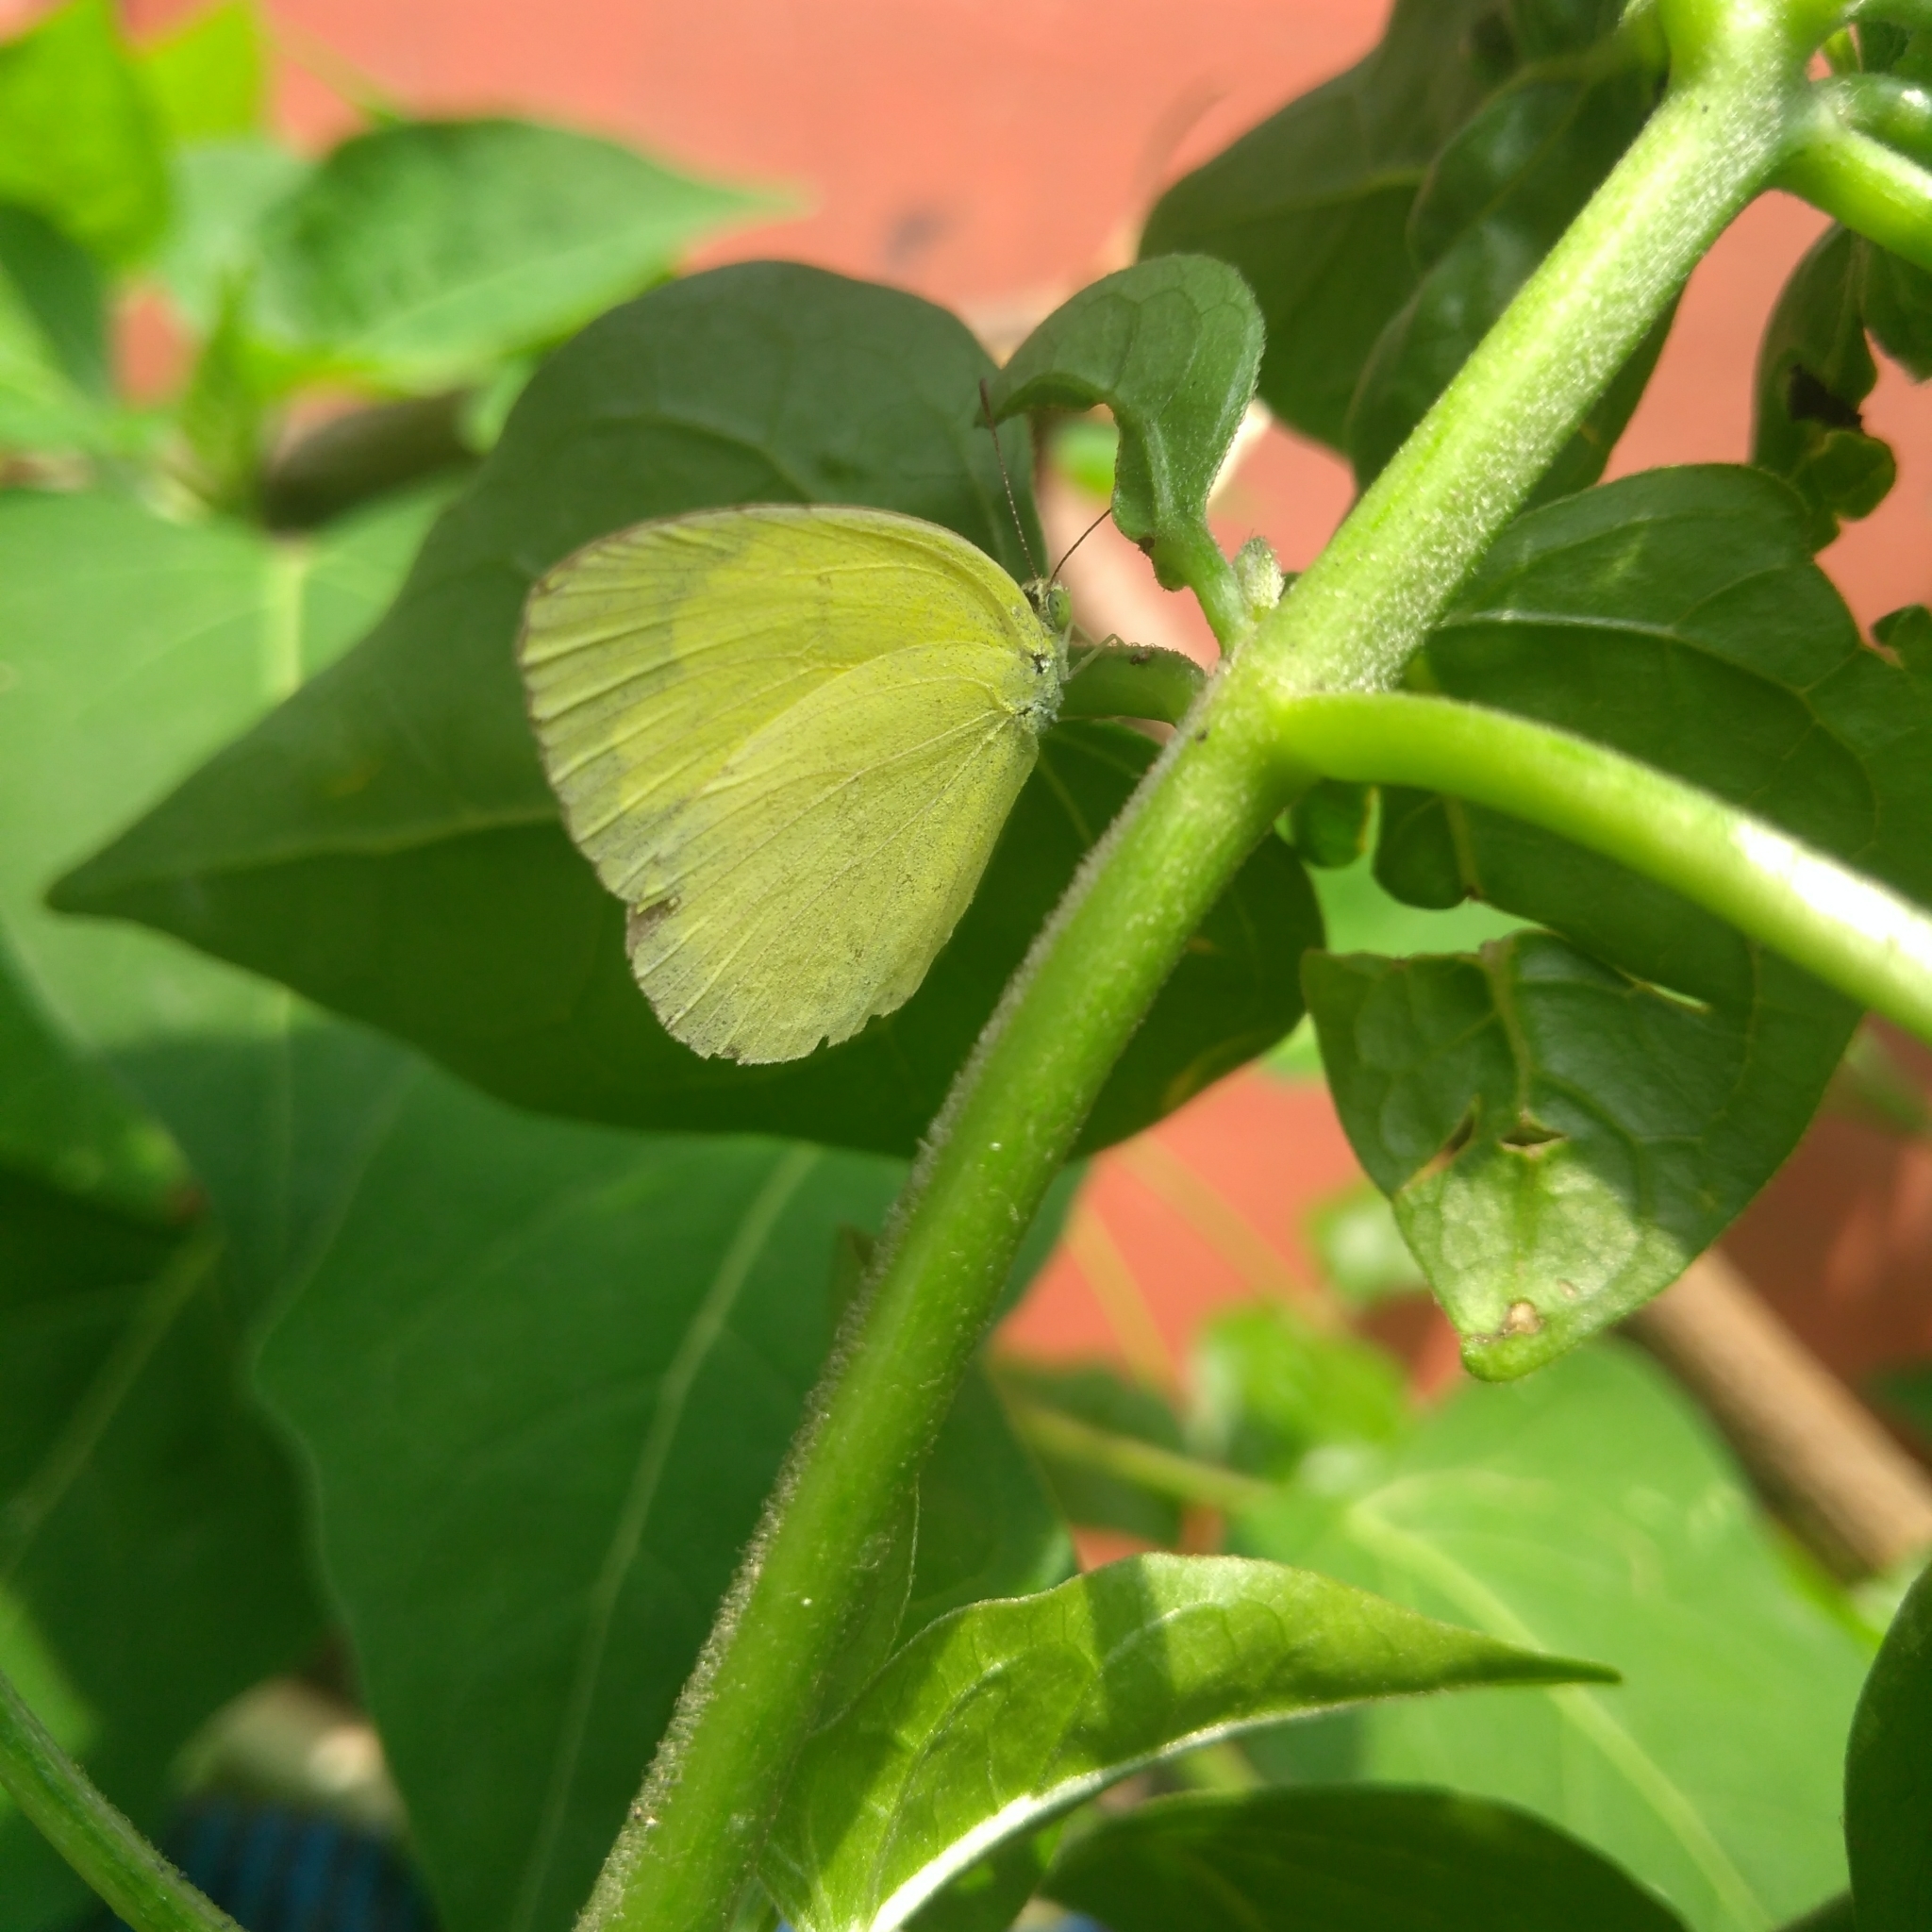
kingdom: Animalia
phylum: Arthropoda
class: Insecta
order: Lepidoptera
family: Pieridae
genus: Eurema
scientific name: Eurema hecabe
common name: Pale grass yellow
